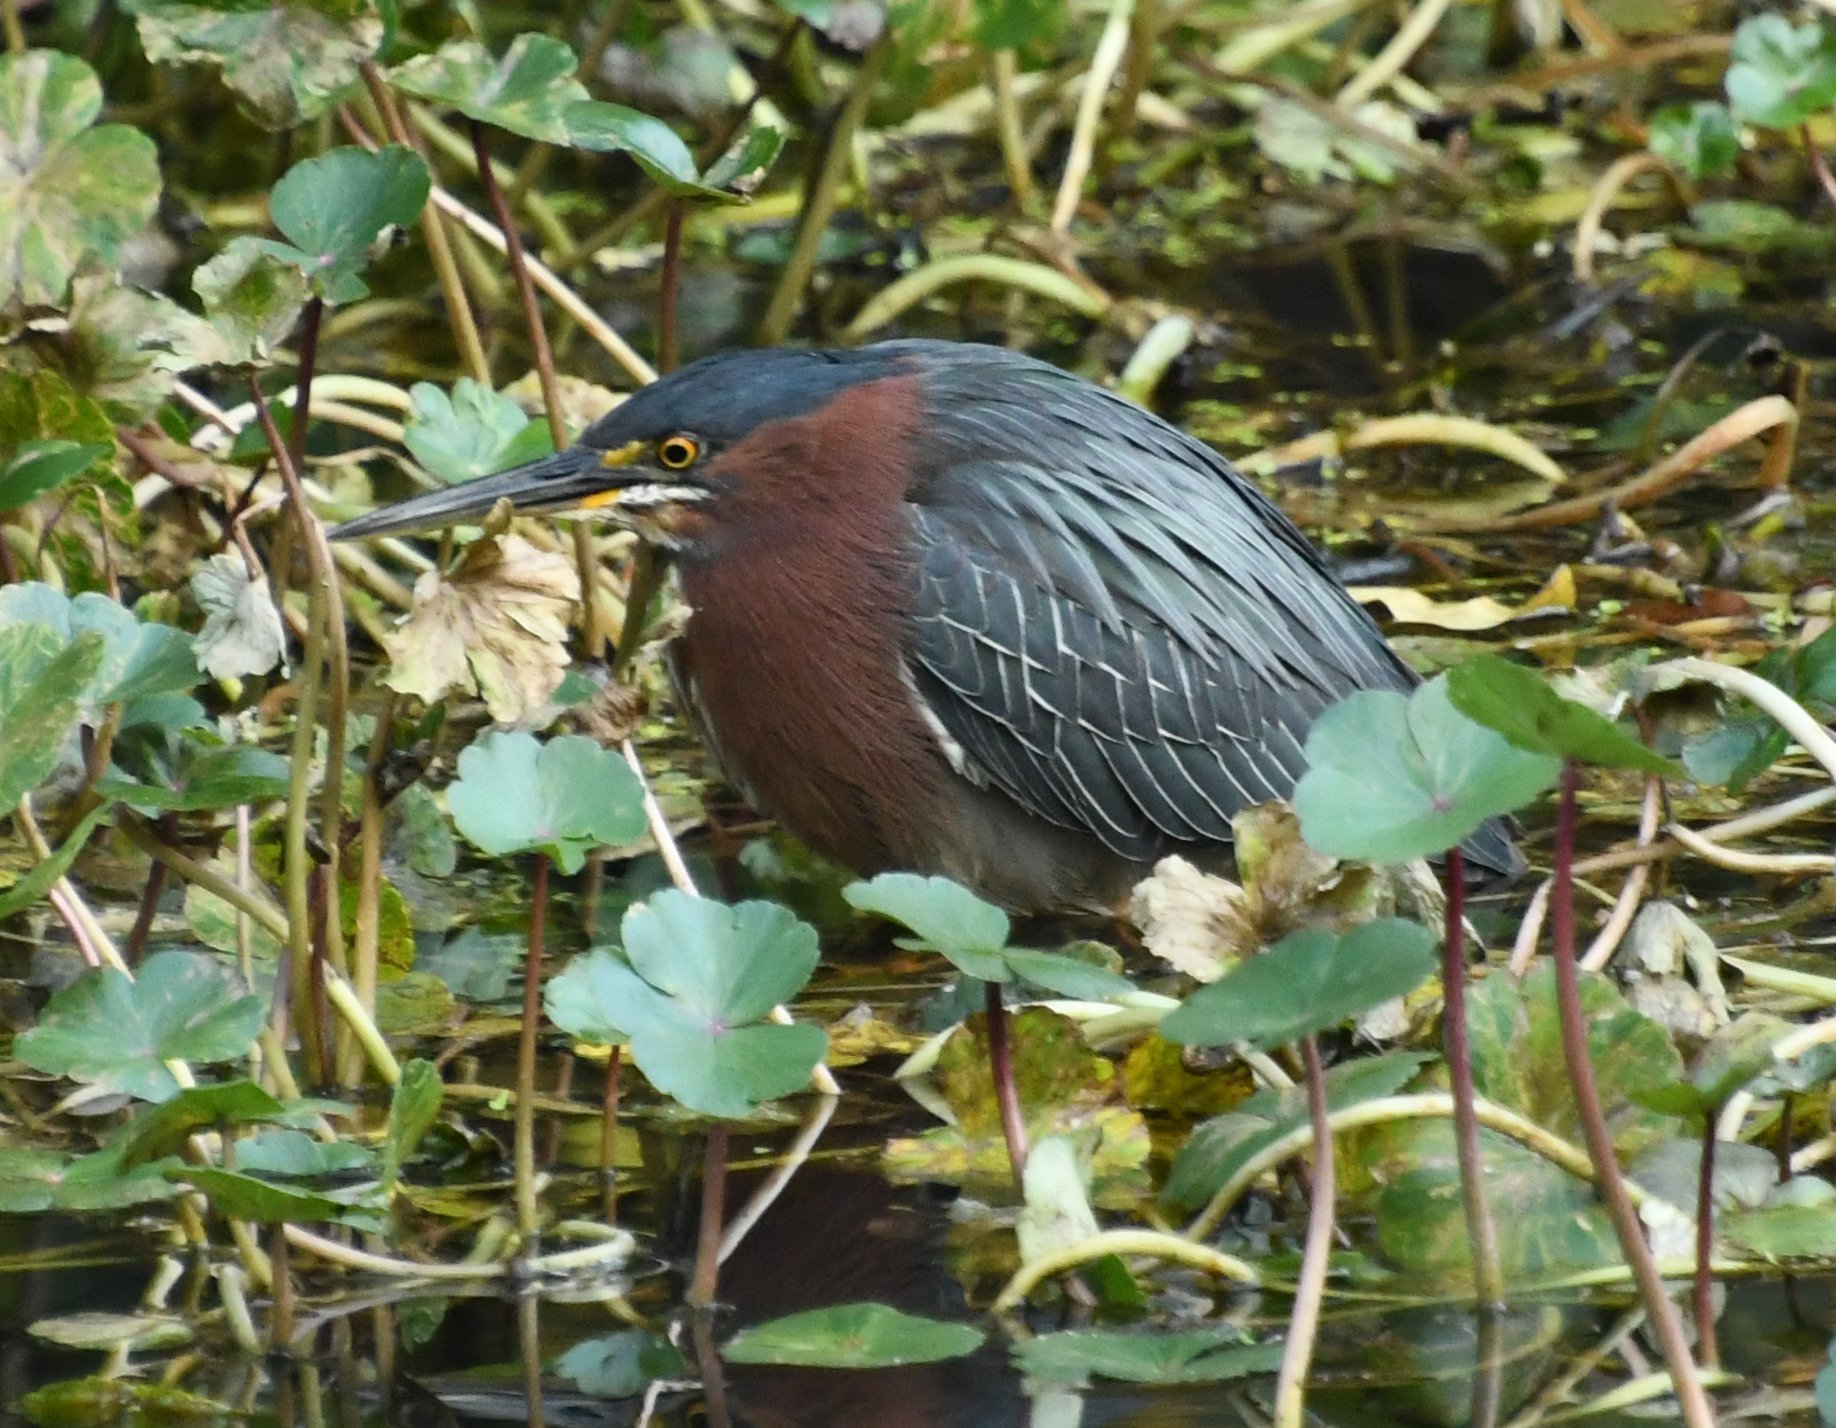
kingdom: Animalia
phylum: Chordata
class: Aves
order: Pelecaniformes
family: Ardeidae
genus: Butorides
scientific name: Butorides virescens
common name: Green heron
